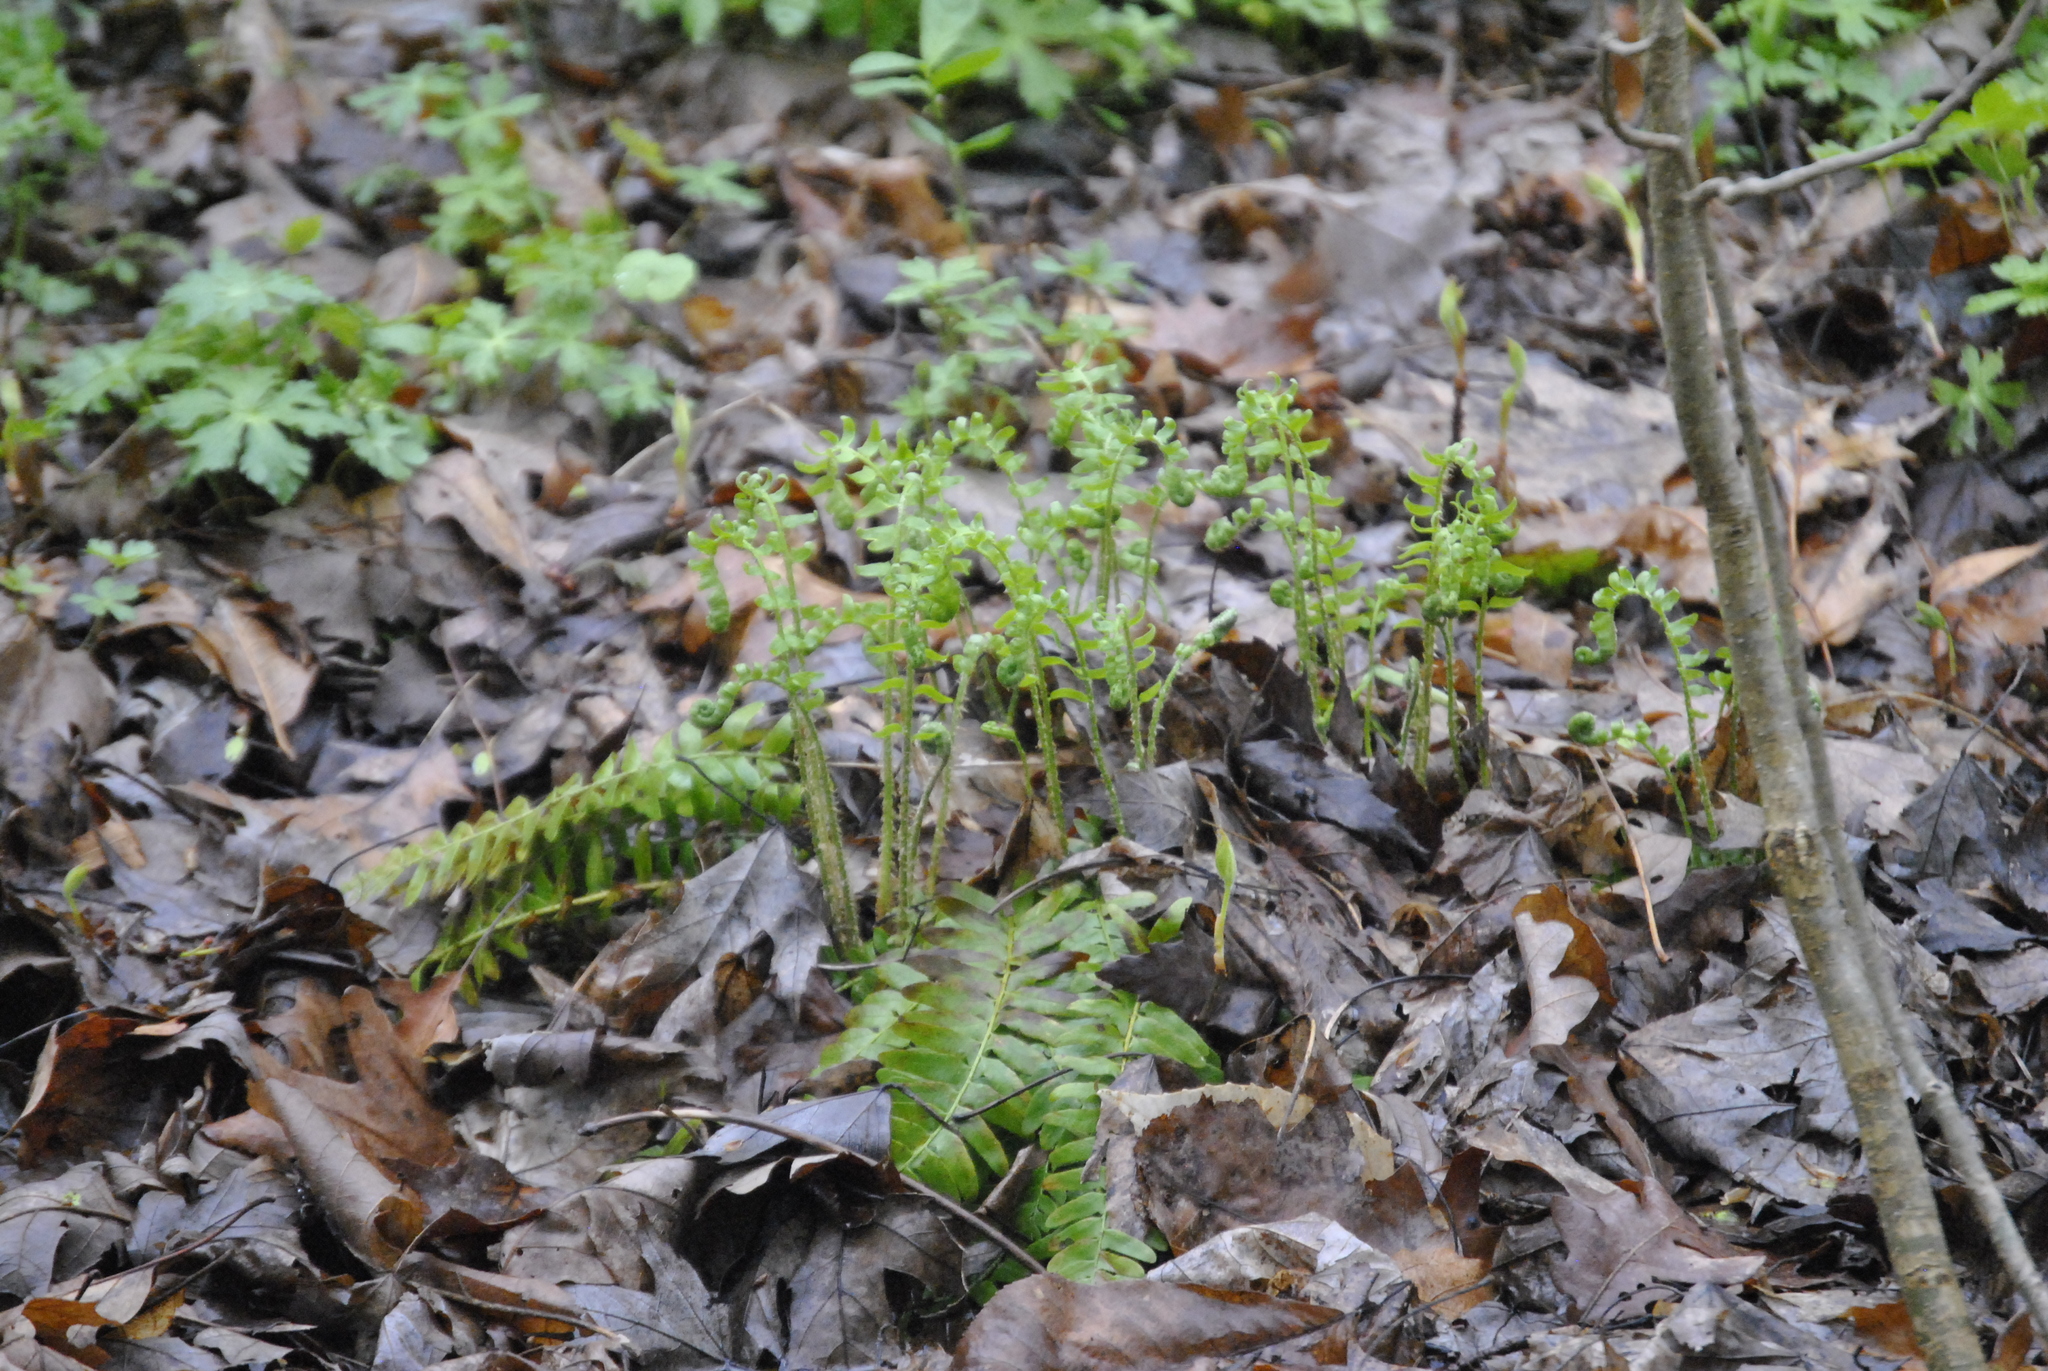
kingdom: Plantae
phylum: Tracheophyta
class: Polypodiopsida
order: Polypodiales
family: Dryopteridaceae
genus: Polystichum
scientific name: Polystichum acrostichoides
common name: Christmas fern
